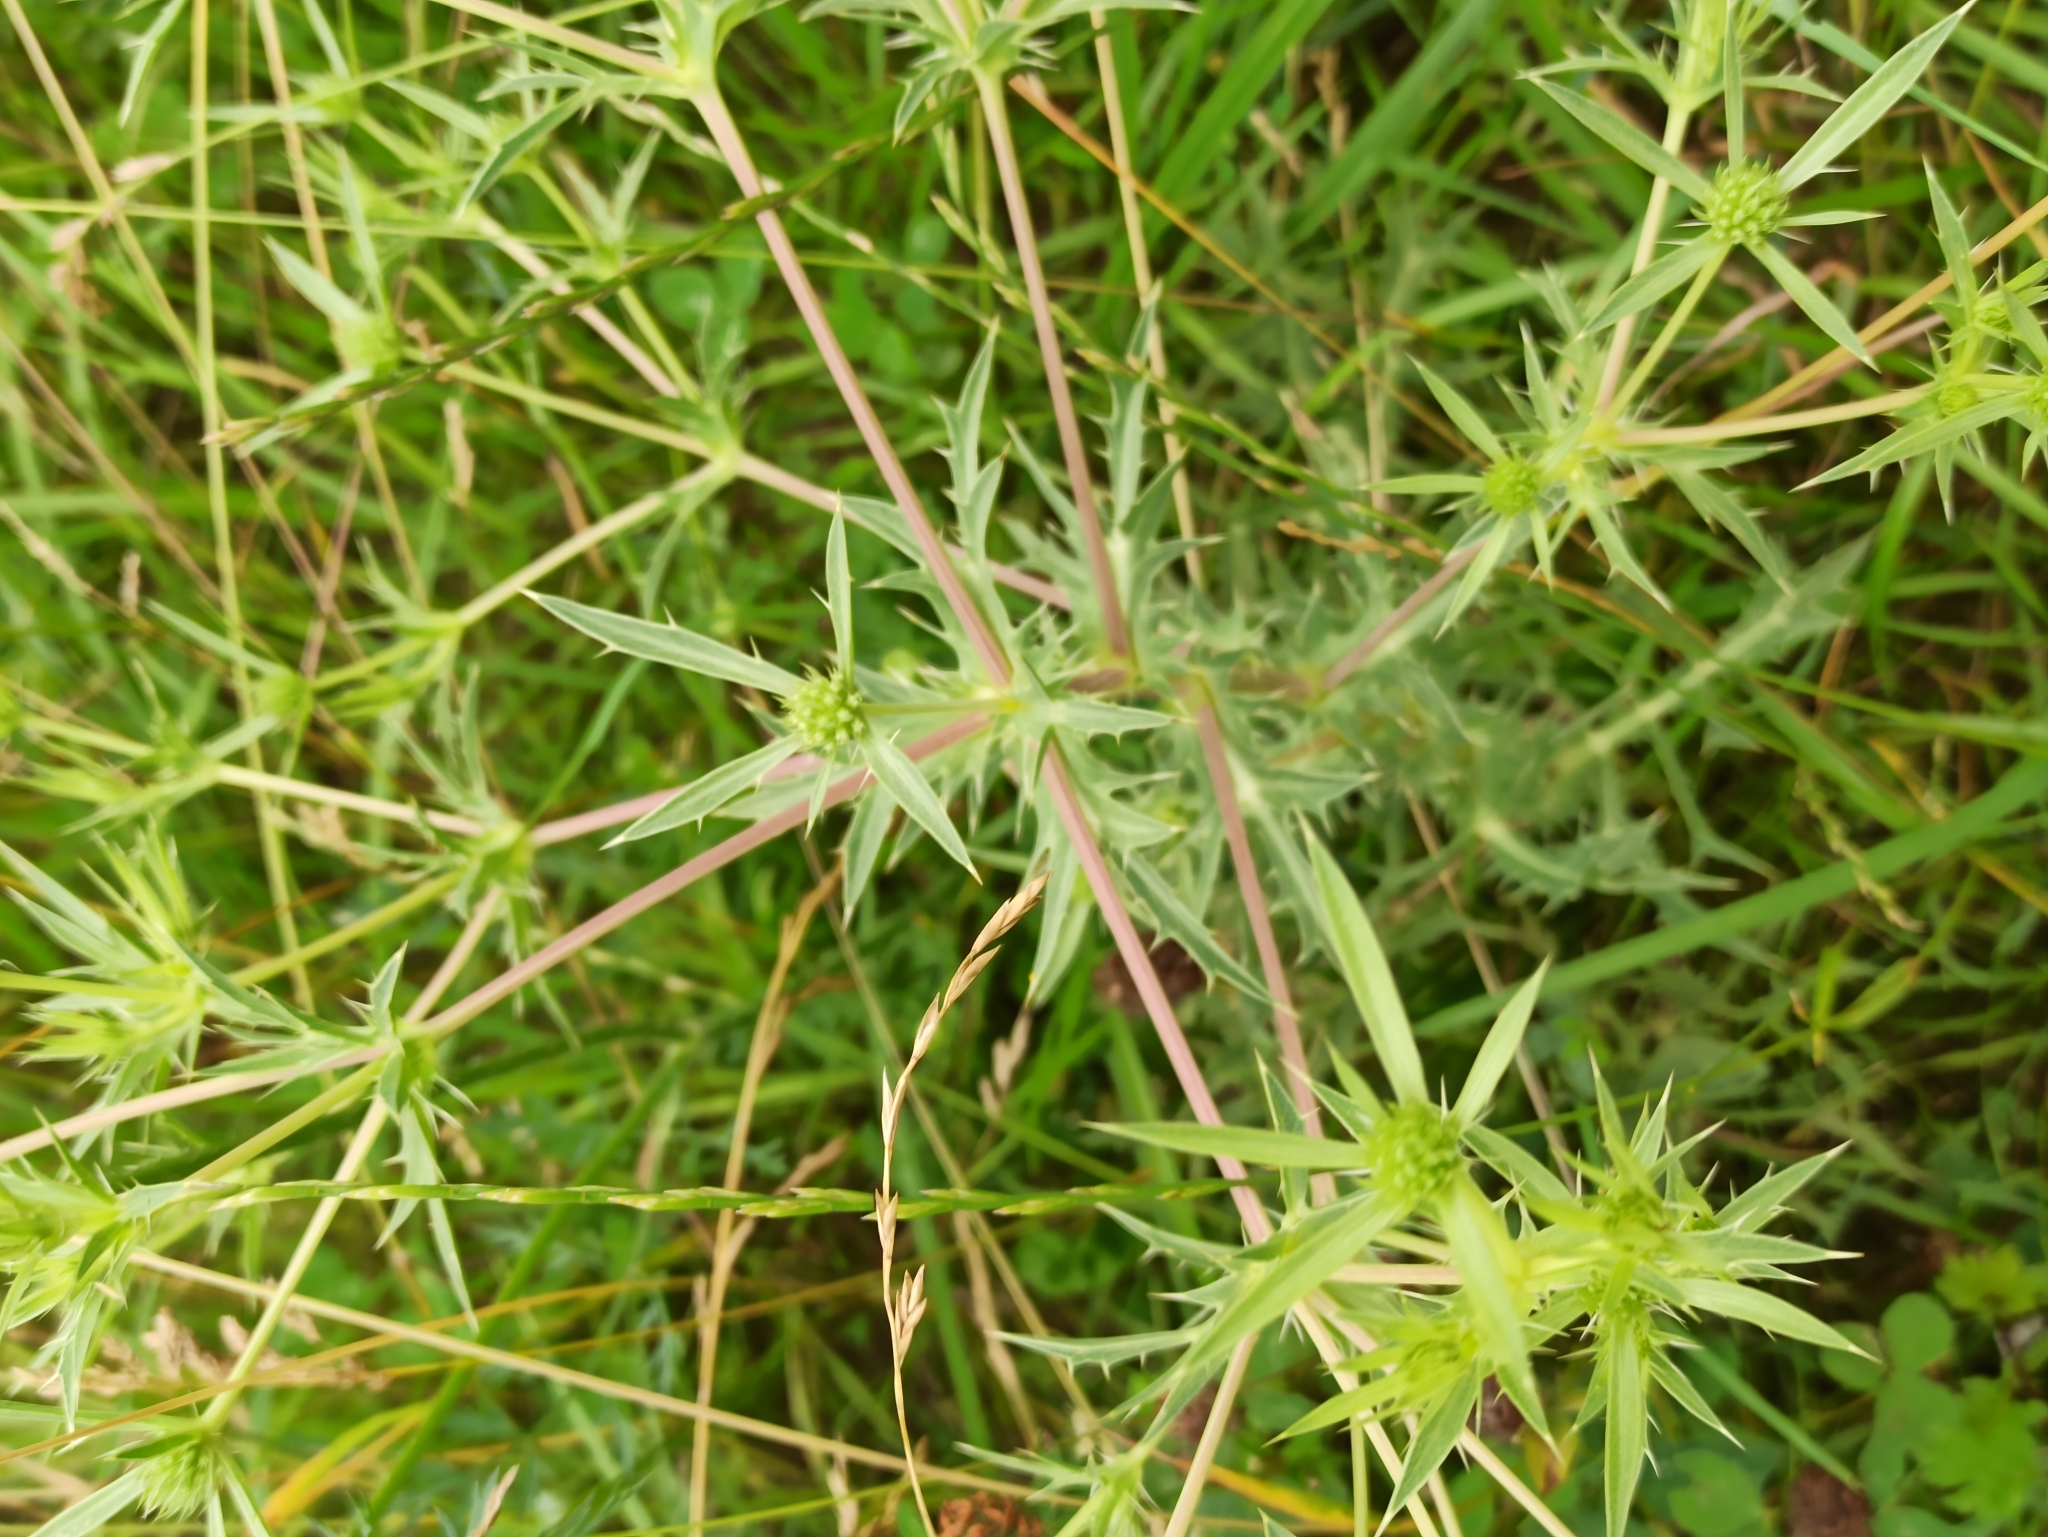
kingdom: Plantae
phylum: Tracheophyta
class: Magnoliopsida
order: Apiales
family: Apiaceae
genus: Eryngium
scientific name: Eryngium campestre
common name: Field eryngo
